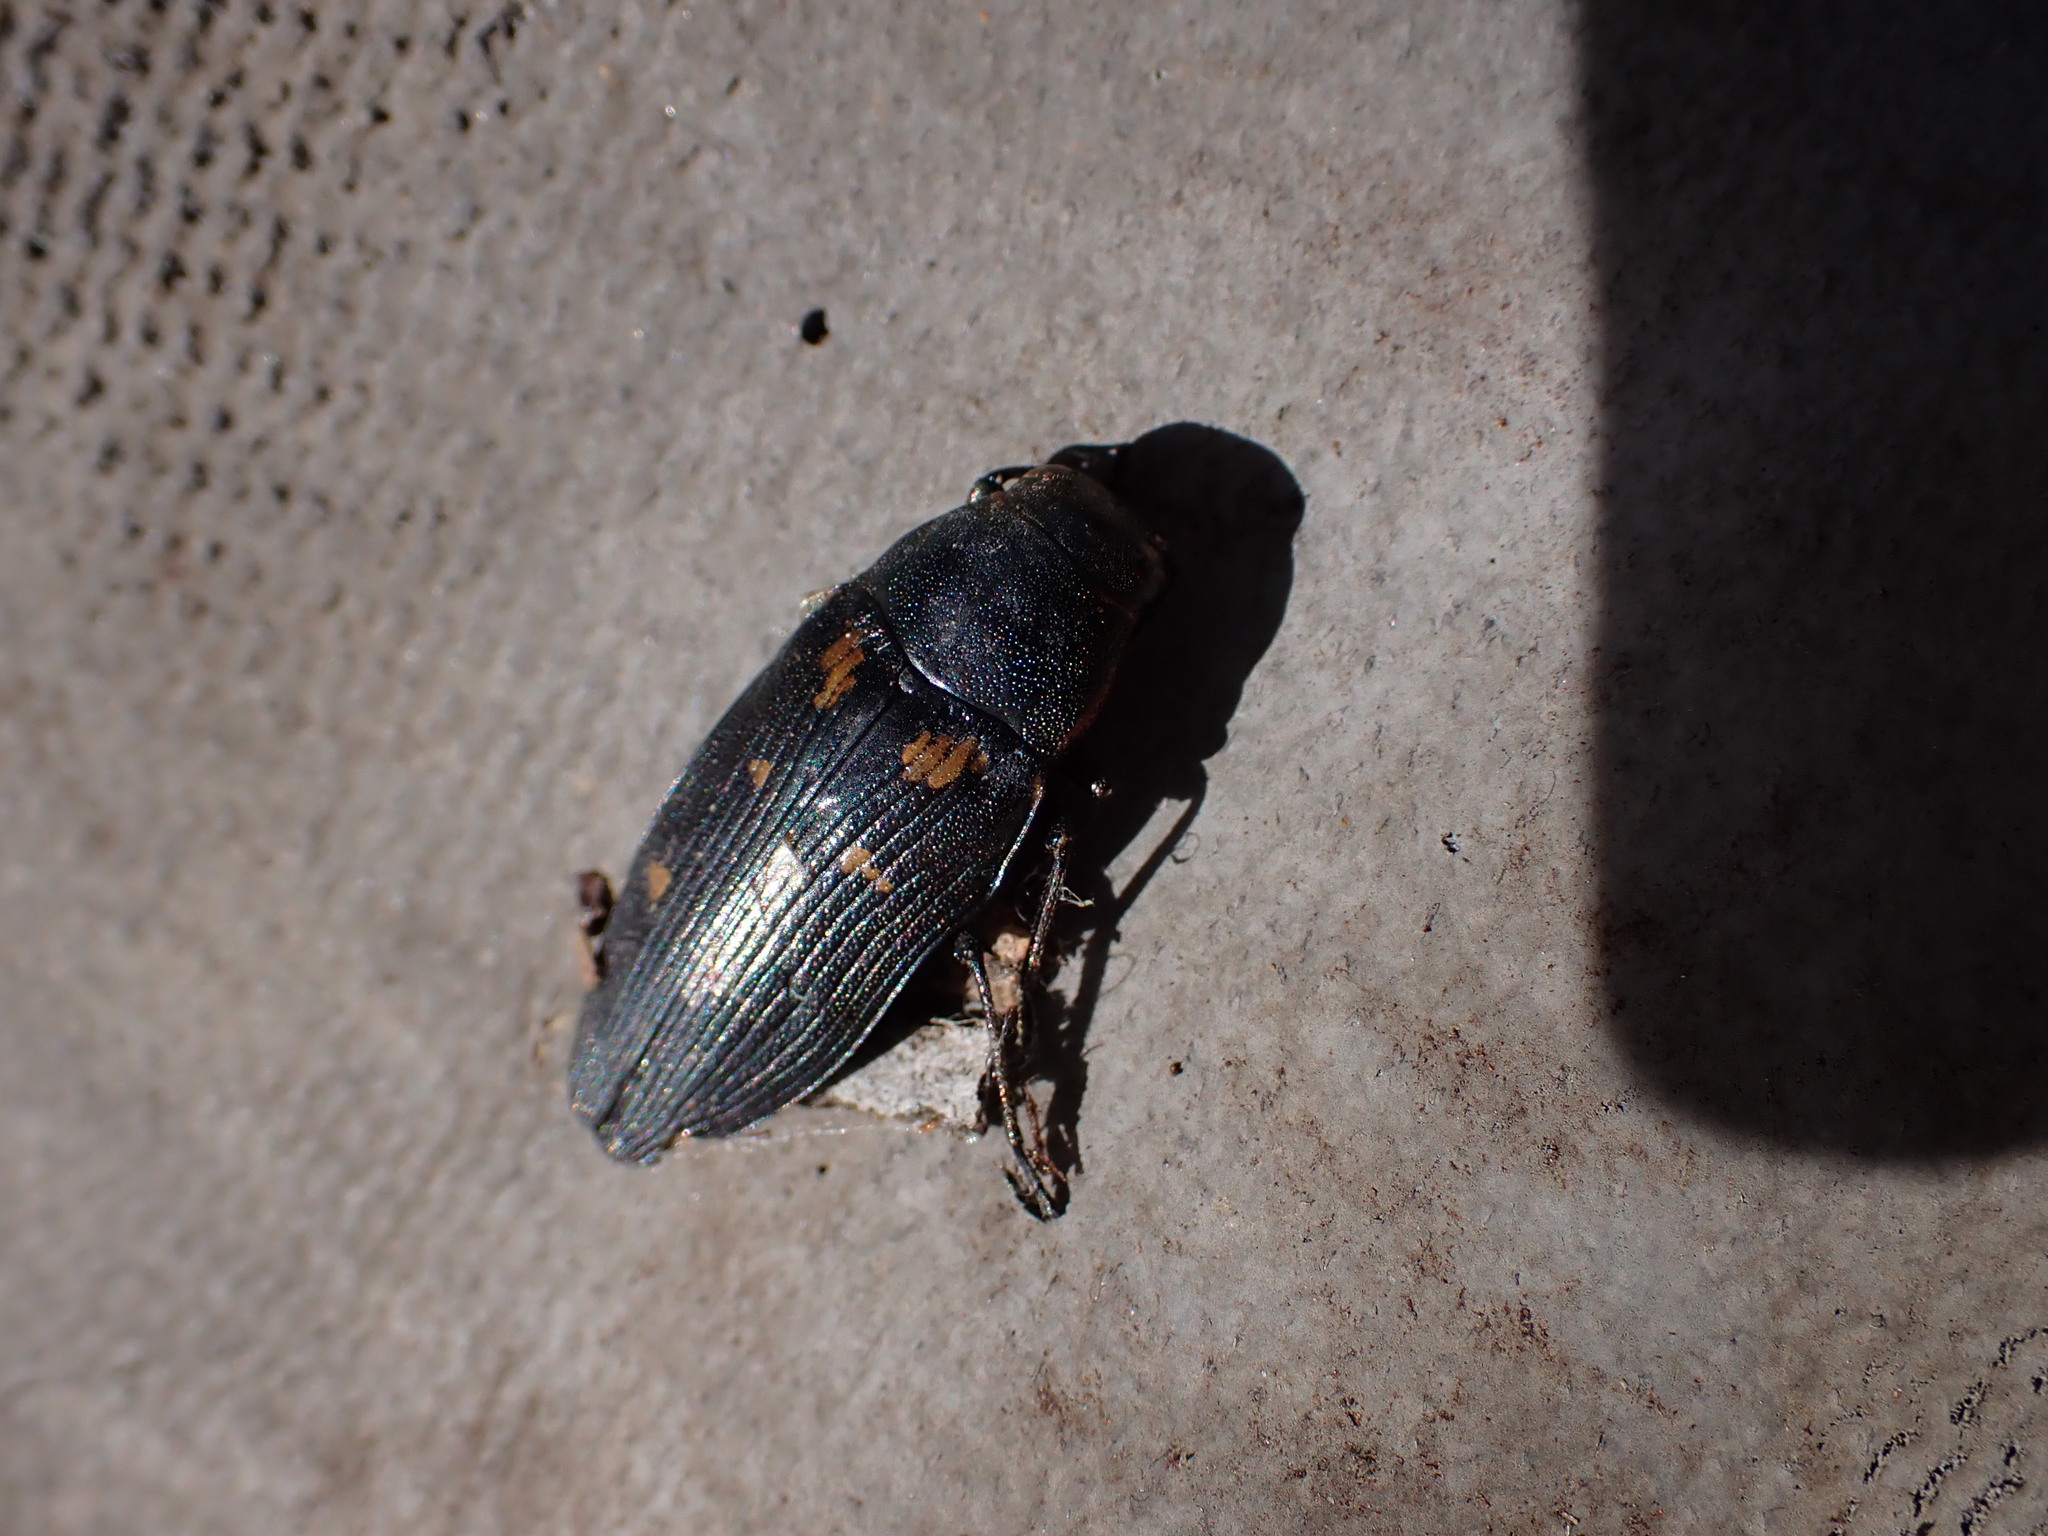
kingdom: Animalia
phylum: Arthropoda
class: Insecta
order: Coleoptera
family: Buprestidae
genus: Buprestis
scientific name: Buprestis novemmaculata
